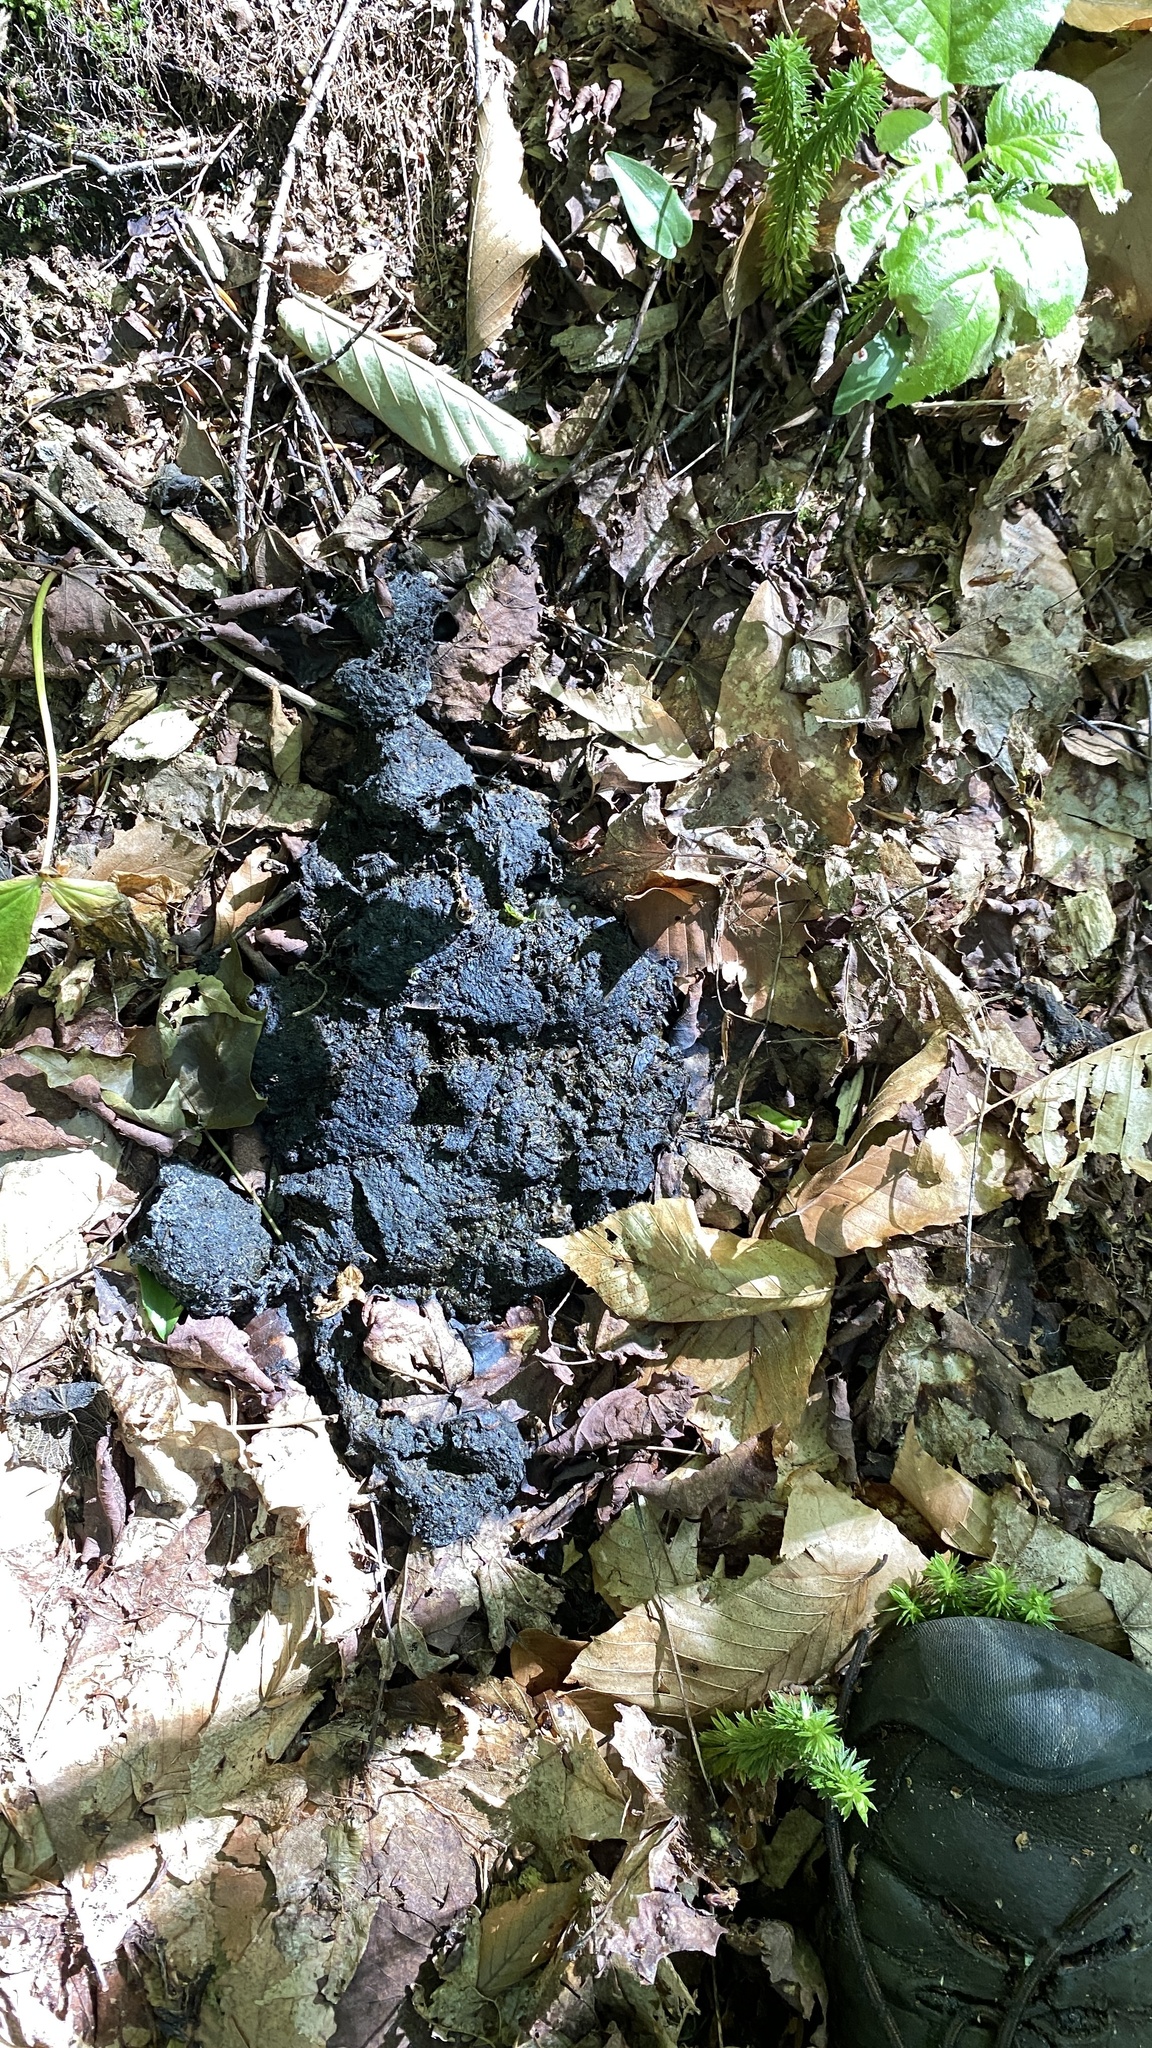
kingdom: Animalia
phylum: Chordata
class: Mammalia
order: Carnivora
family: Ursidae
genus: Ursus
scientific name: Ursus americanus
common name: American black bear
